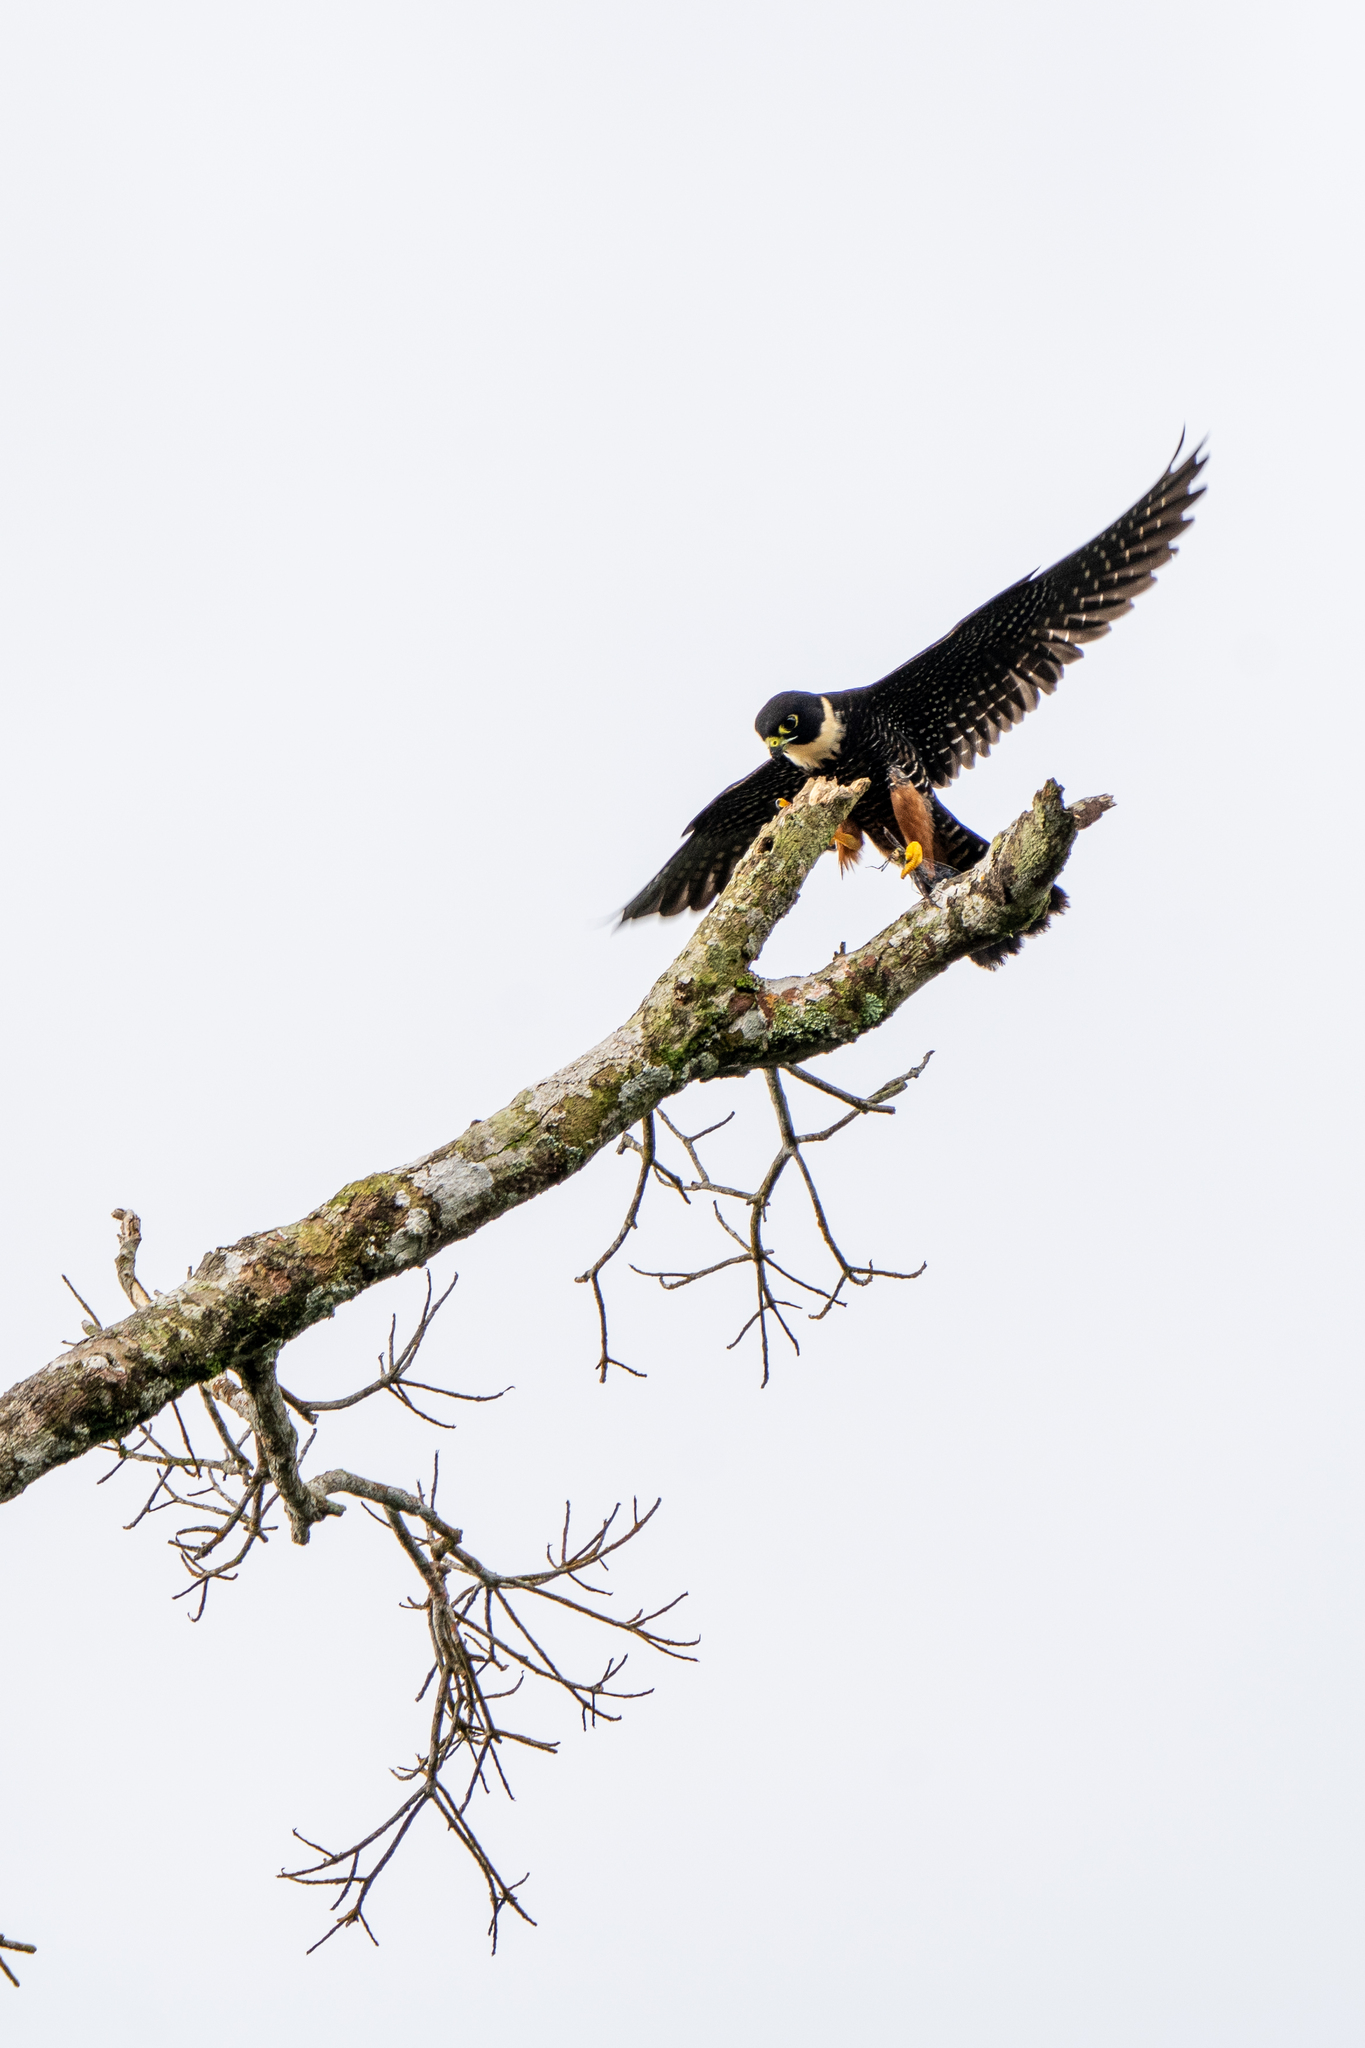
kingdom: Animalia
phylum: Chordata
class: Aves
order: Falconiformes
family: Falconidae
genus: Falco
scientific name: Falco rufigularis
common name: Bat falcon
